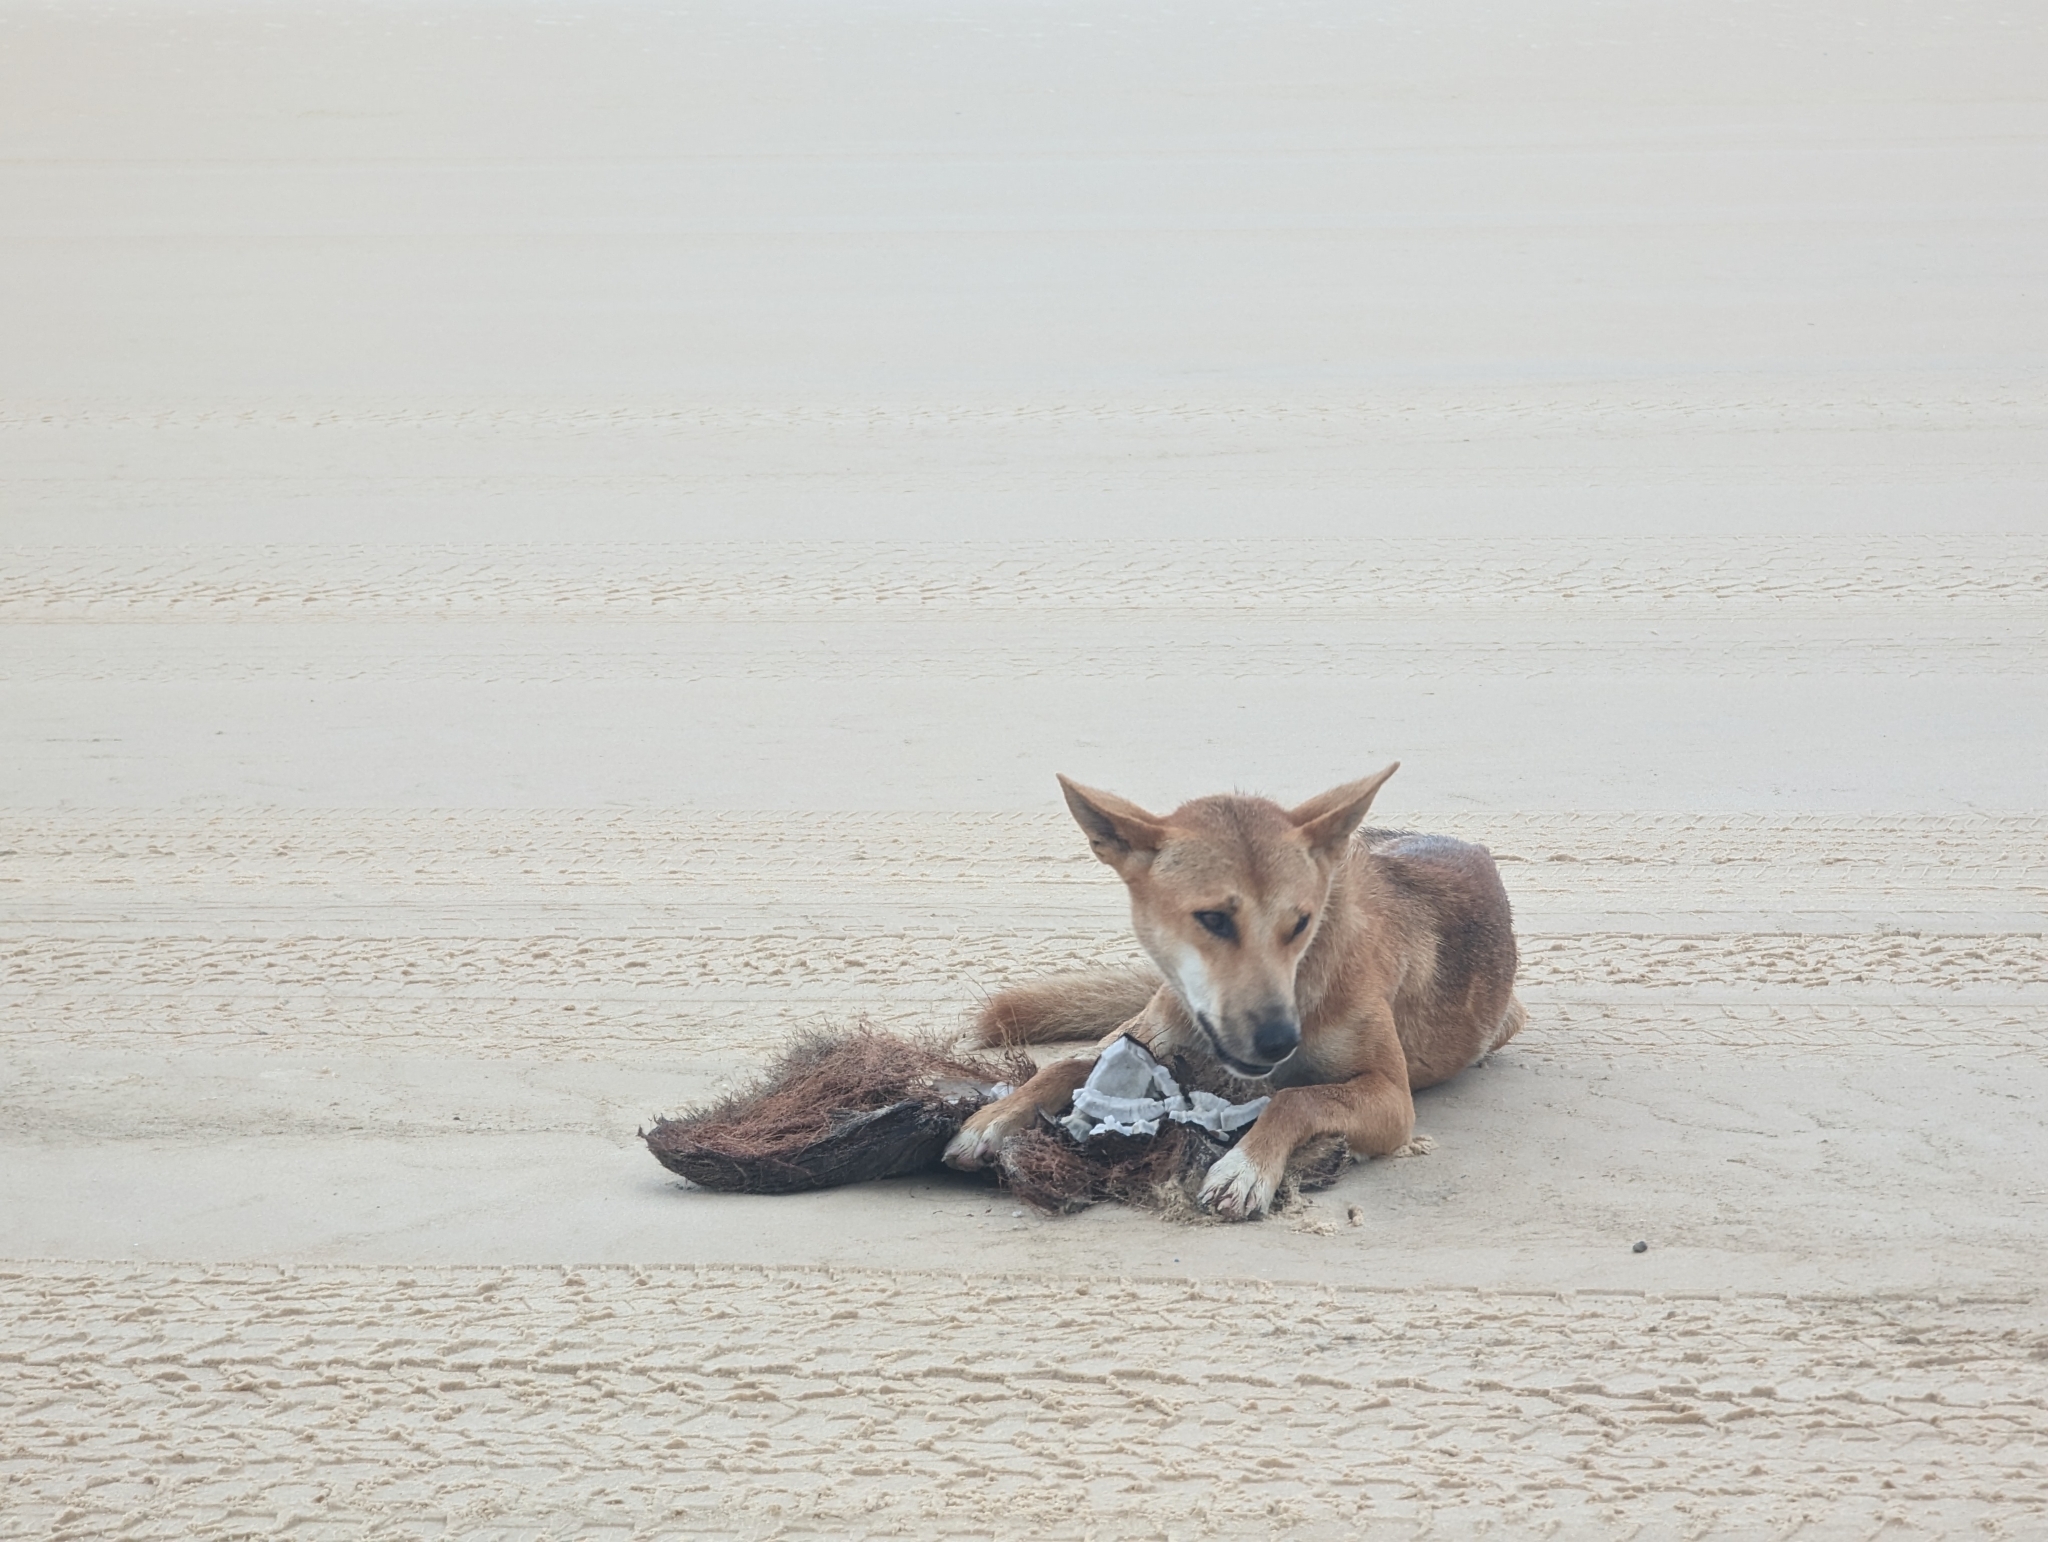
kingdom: Animalia
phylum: Chordata
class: Mammalia
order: Carnivora
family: Canidae
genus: Canis
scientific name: Canis lupus
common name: Gray wolf
